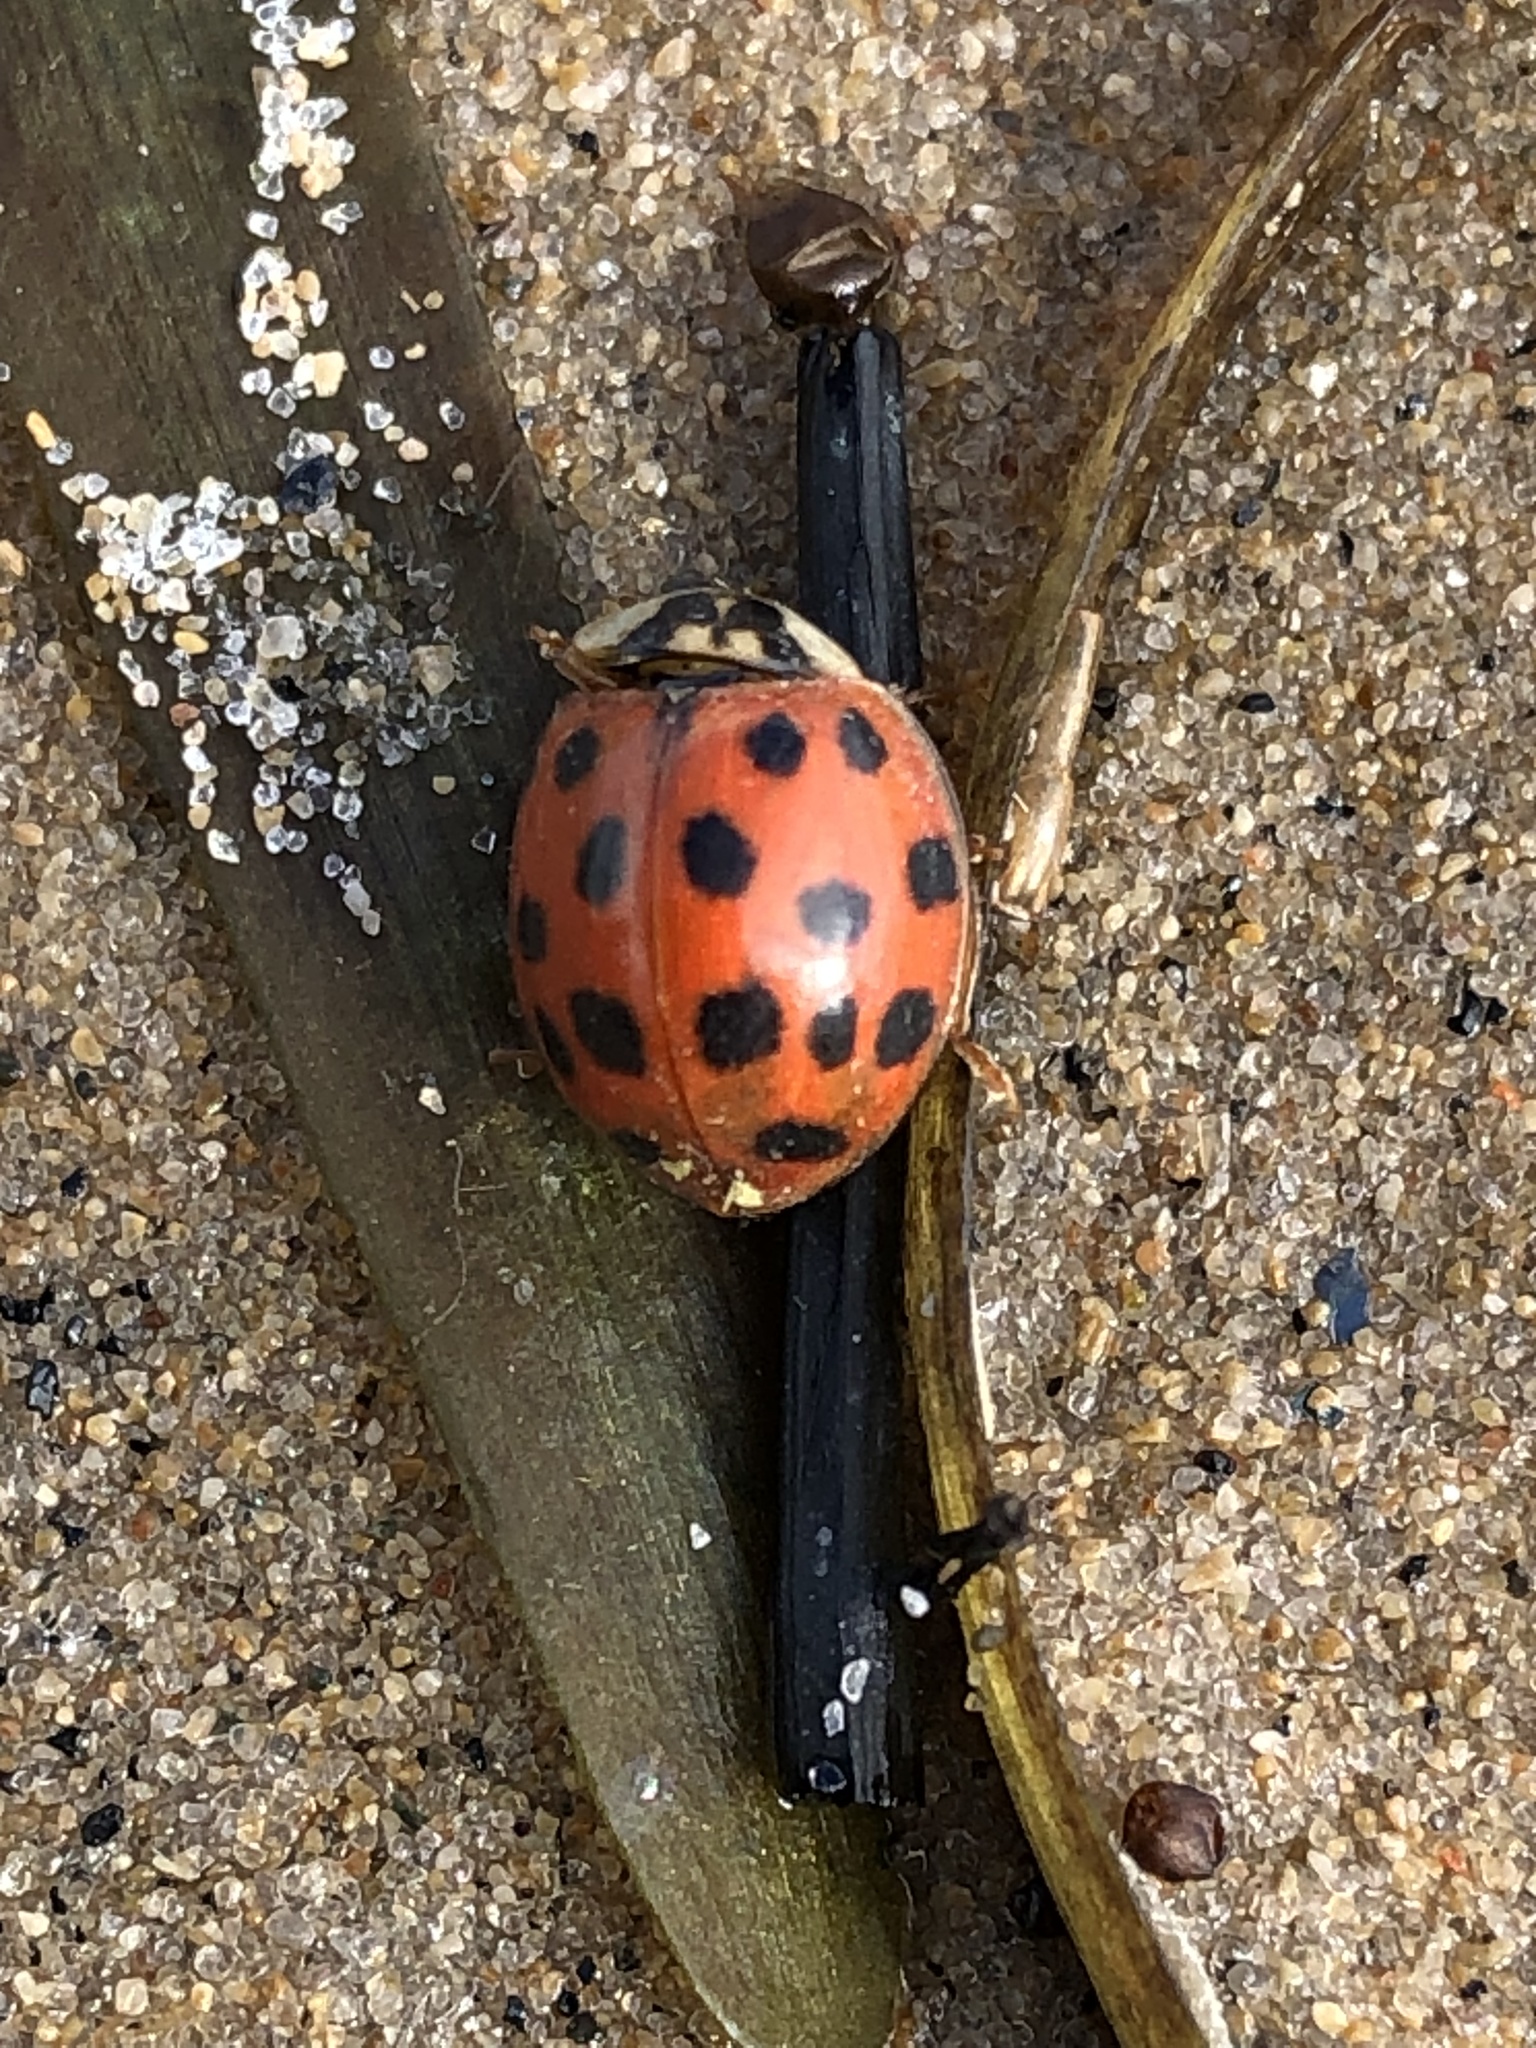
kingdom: Animalia
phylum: Arthropoda
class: Insecta
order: Coleoptera
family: Coccinellidae
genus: Harmonia
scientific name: Harmonia axyridis
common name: Harlequin ladybird
